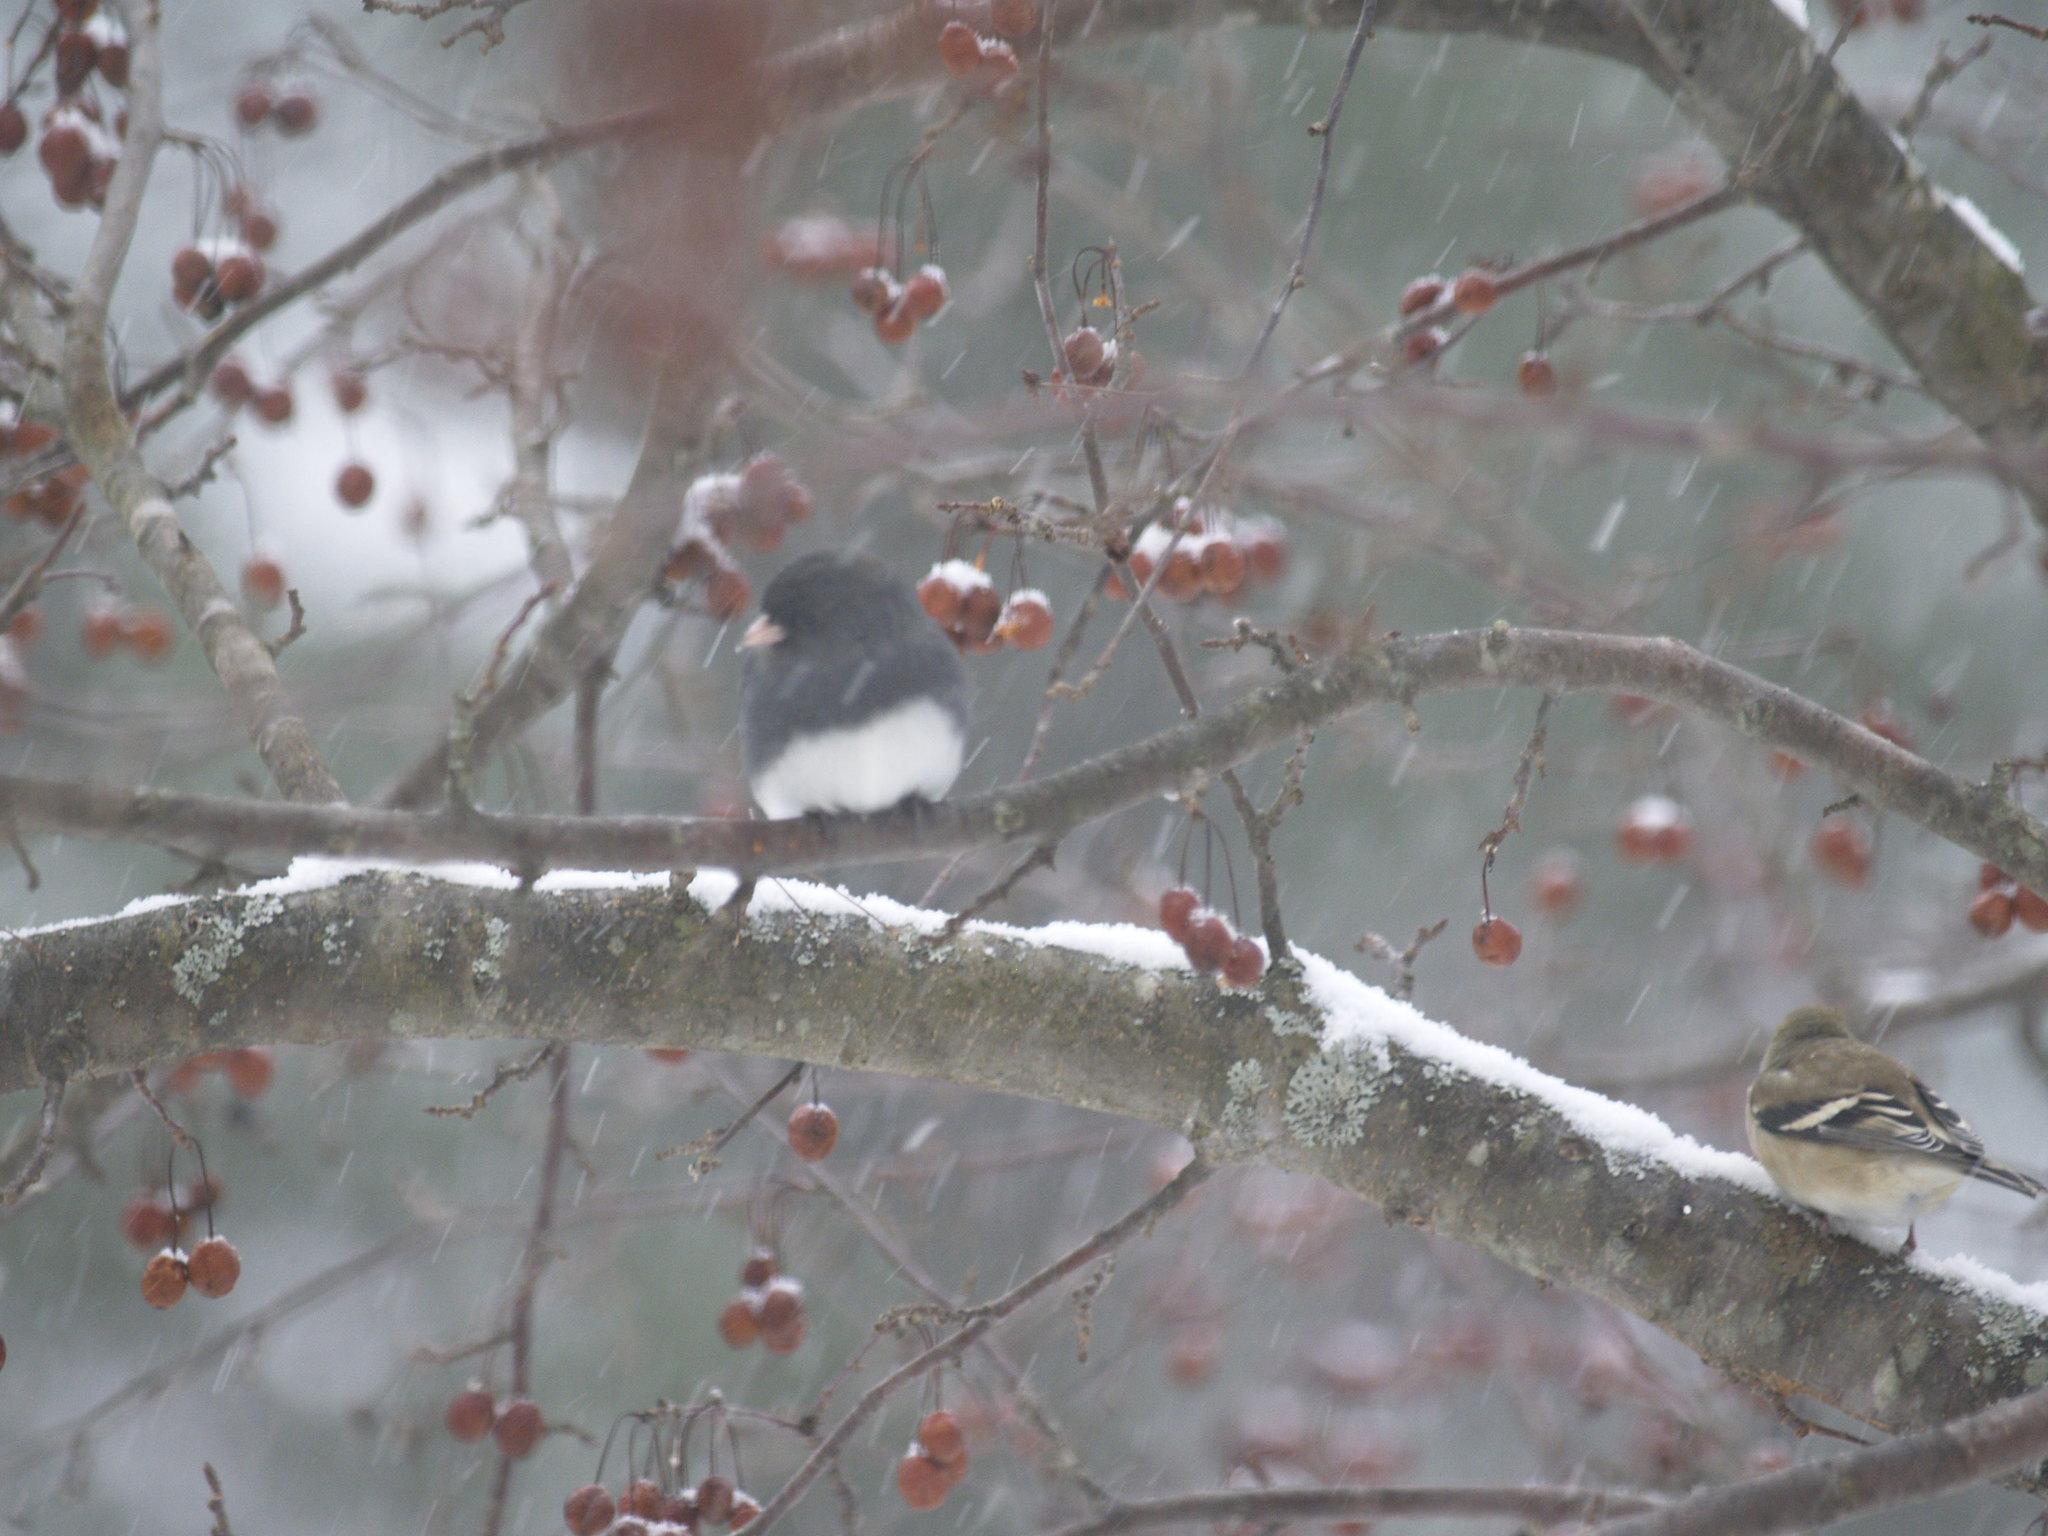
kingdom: Animalia
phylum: Chordata
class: Aves
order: Passeriformes
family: Passerellidae
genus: Junco
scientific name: Junco hyemalis
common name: Dark-eyed junco
